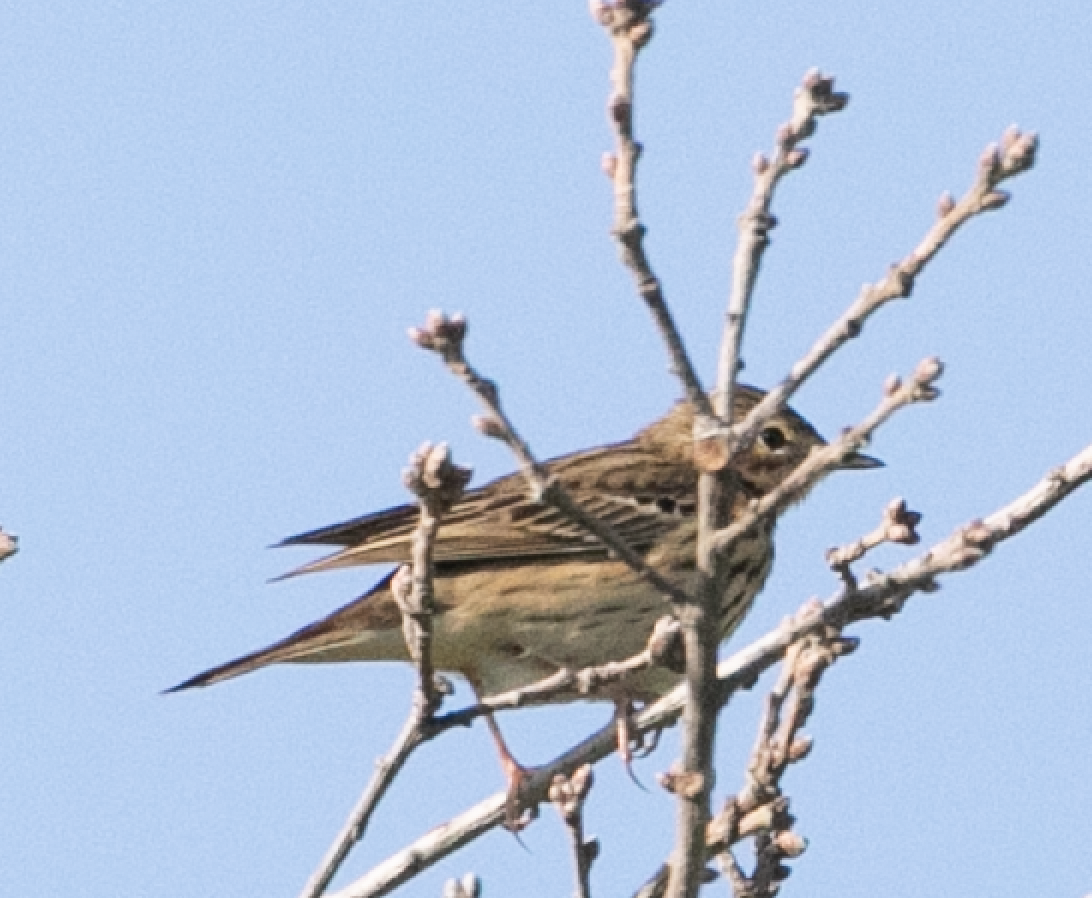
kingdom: Animalia
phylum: Chordata
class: Aves
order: Passeriformes
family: Motacillidae
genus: Anthus
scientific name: Anthus trivialis
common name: Tree pipit
